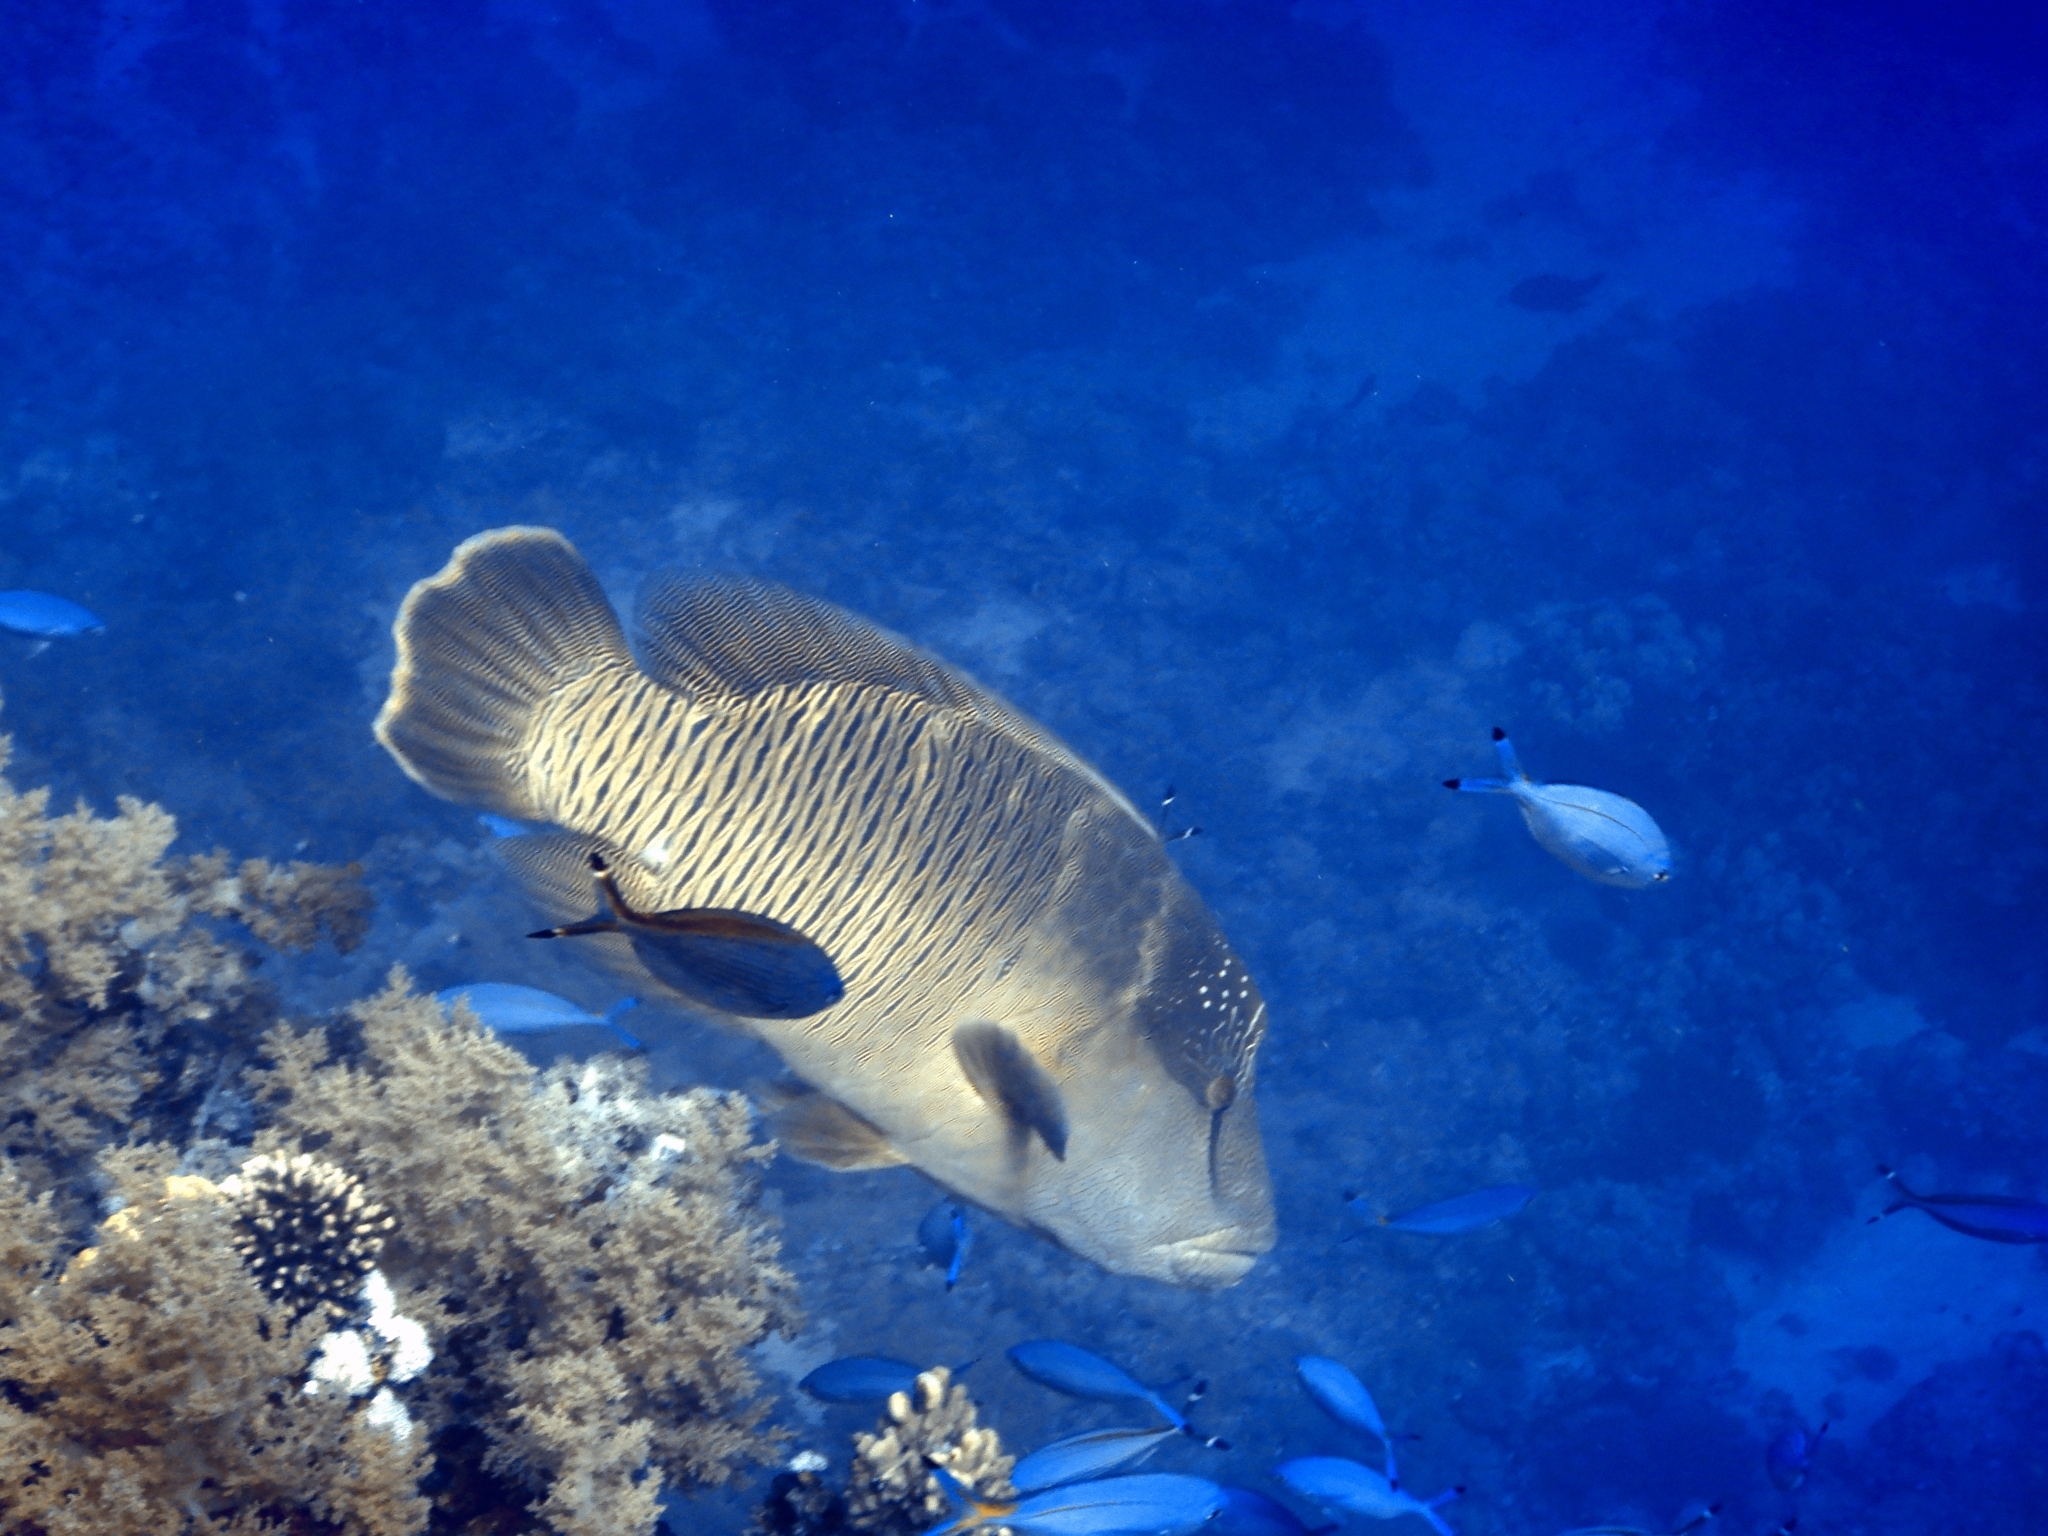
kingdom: Animalia
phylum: Chordata
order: Perciformes
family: Labridae
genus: Cheilinus
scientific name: Cheilinus undulatus
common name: Humphead wrasse
